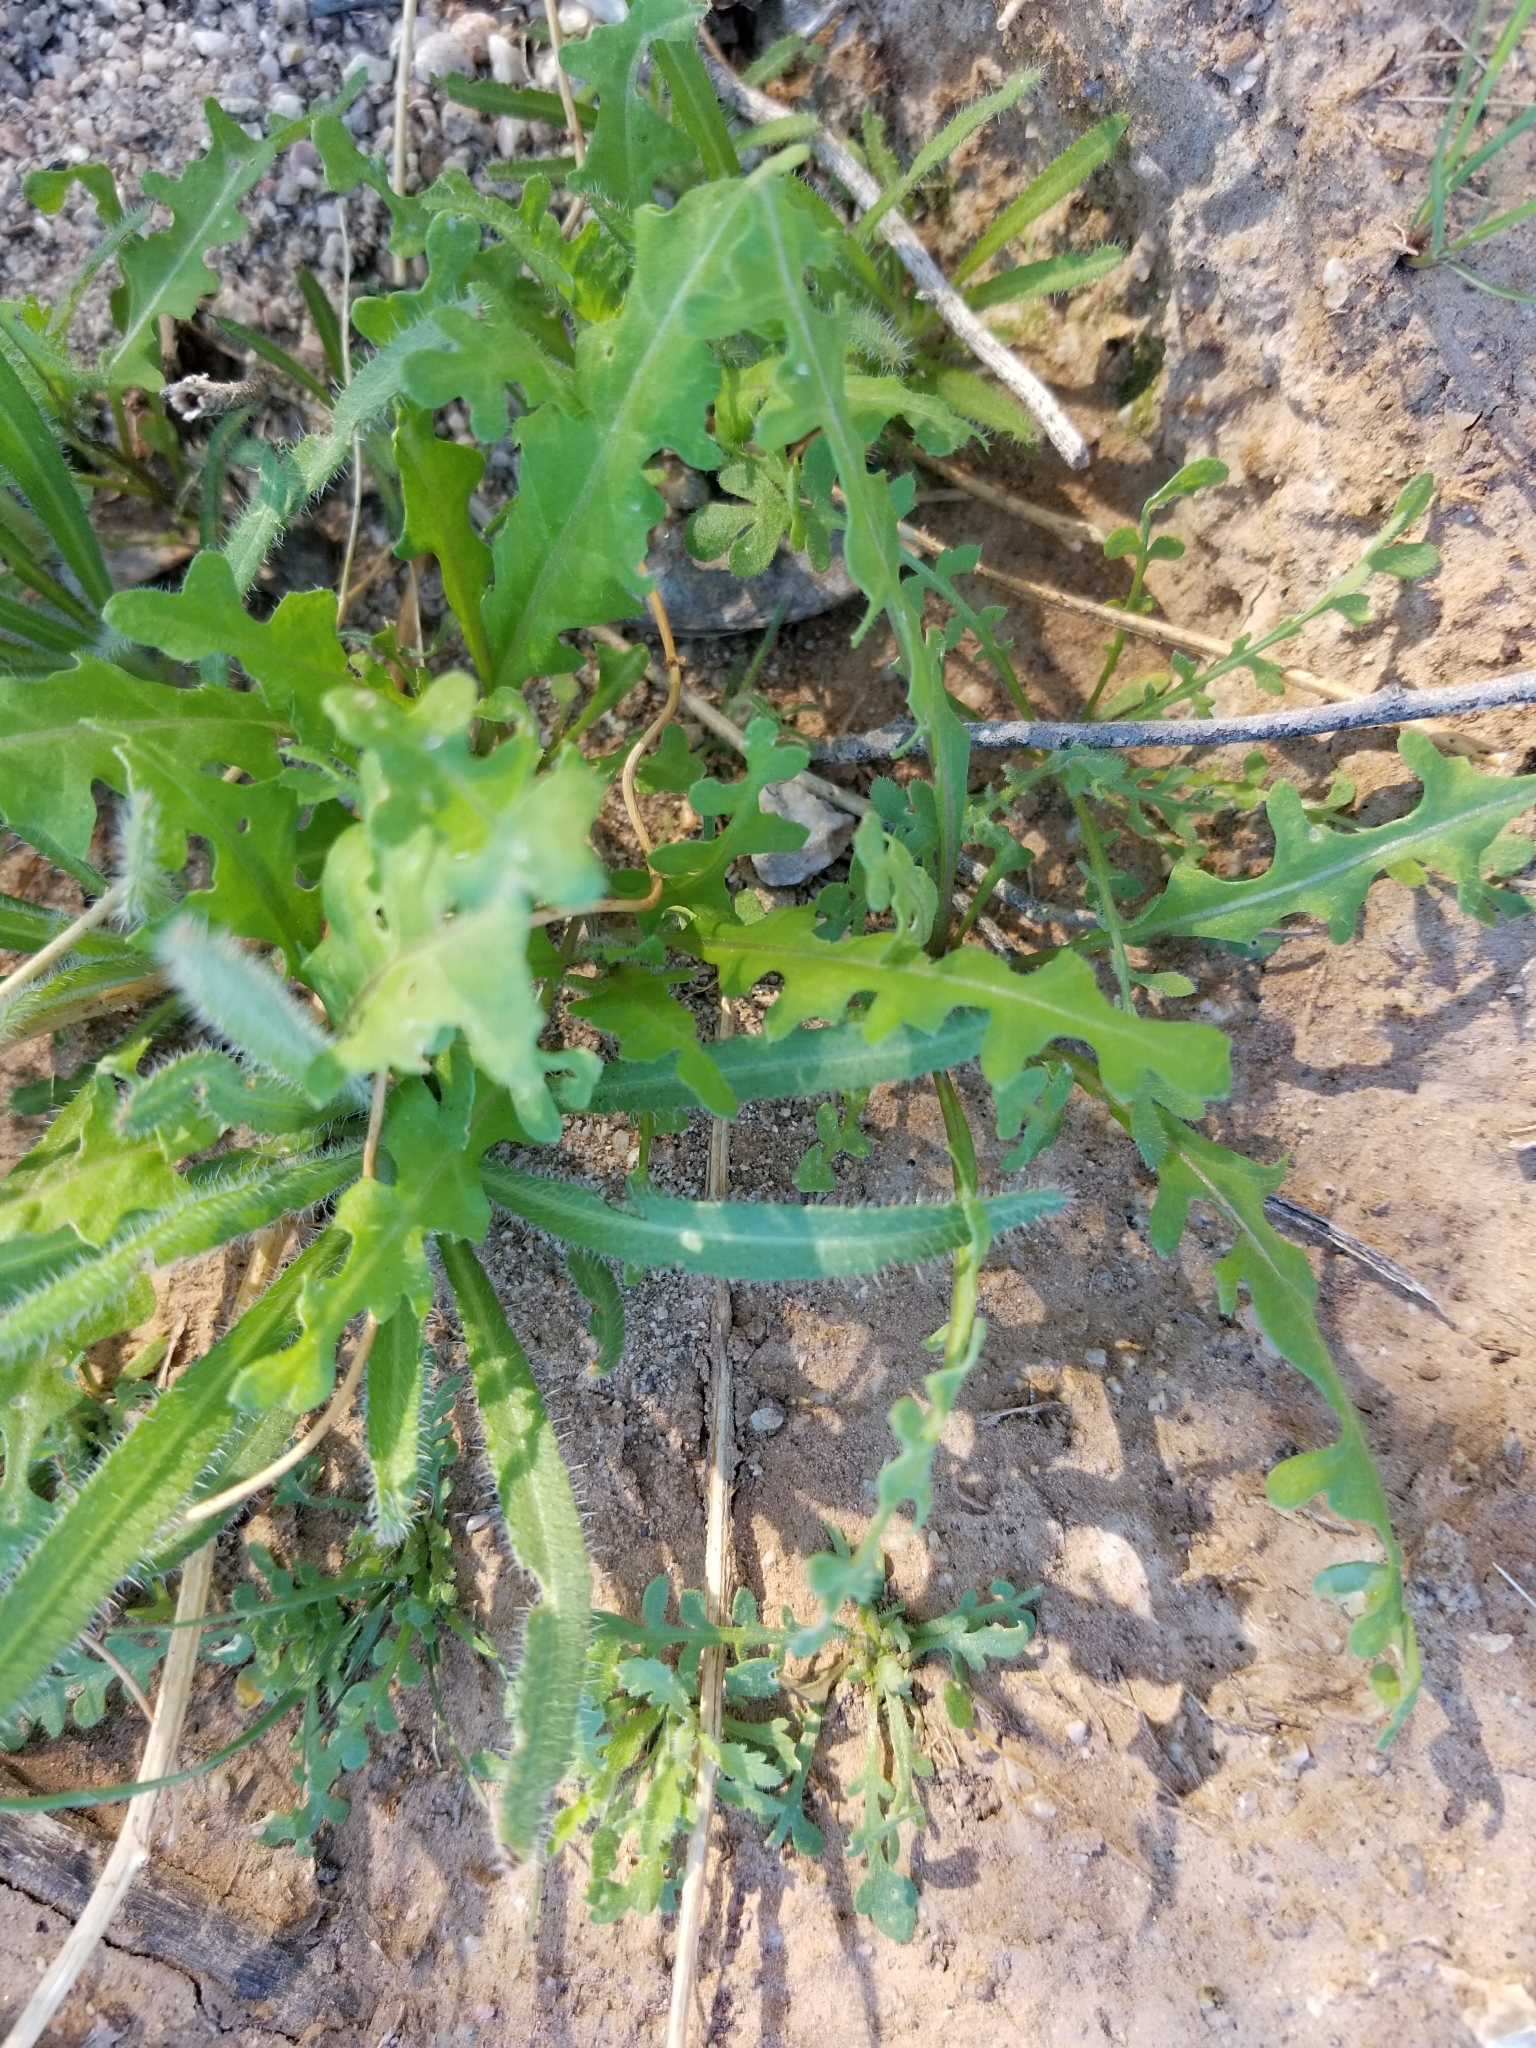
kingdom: Plantae
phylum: Tracheophyta
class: Magnoliopsida
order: Brassicales
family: Brassicaceae
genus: Streptanthus
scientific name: Streptanthus lasiophyllus
